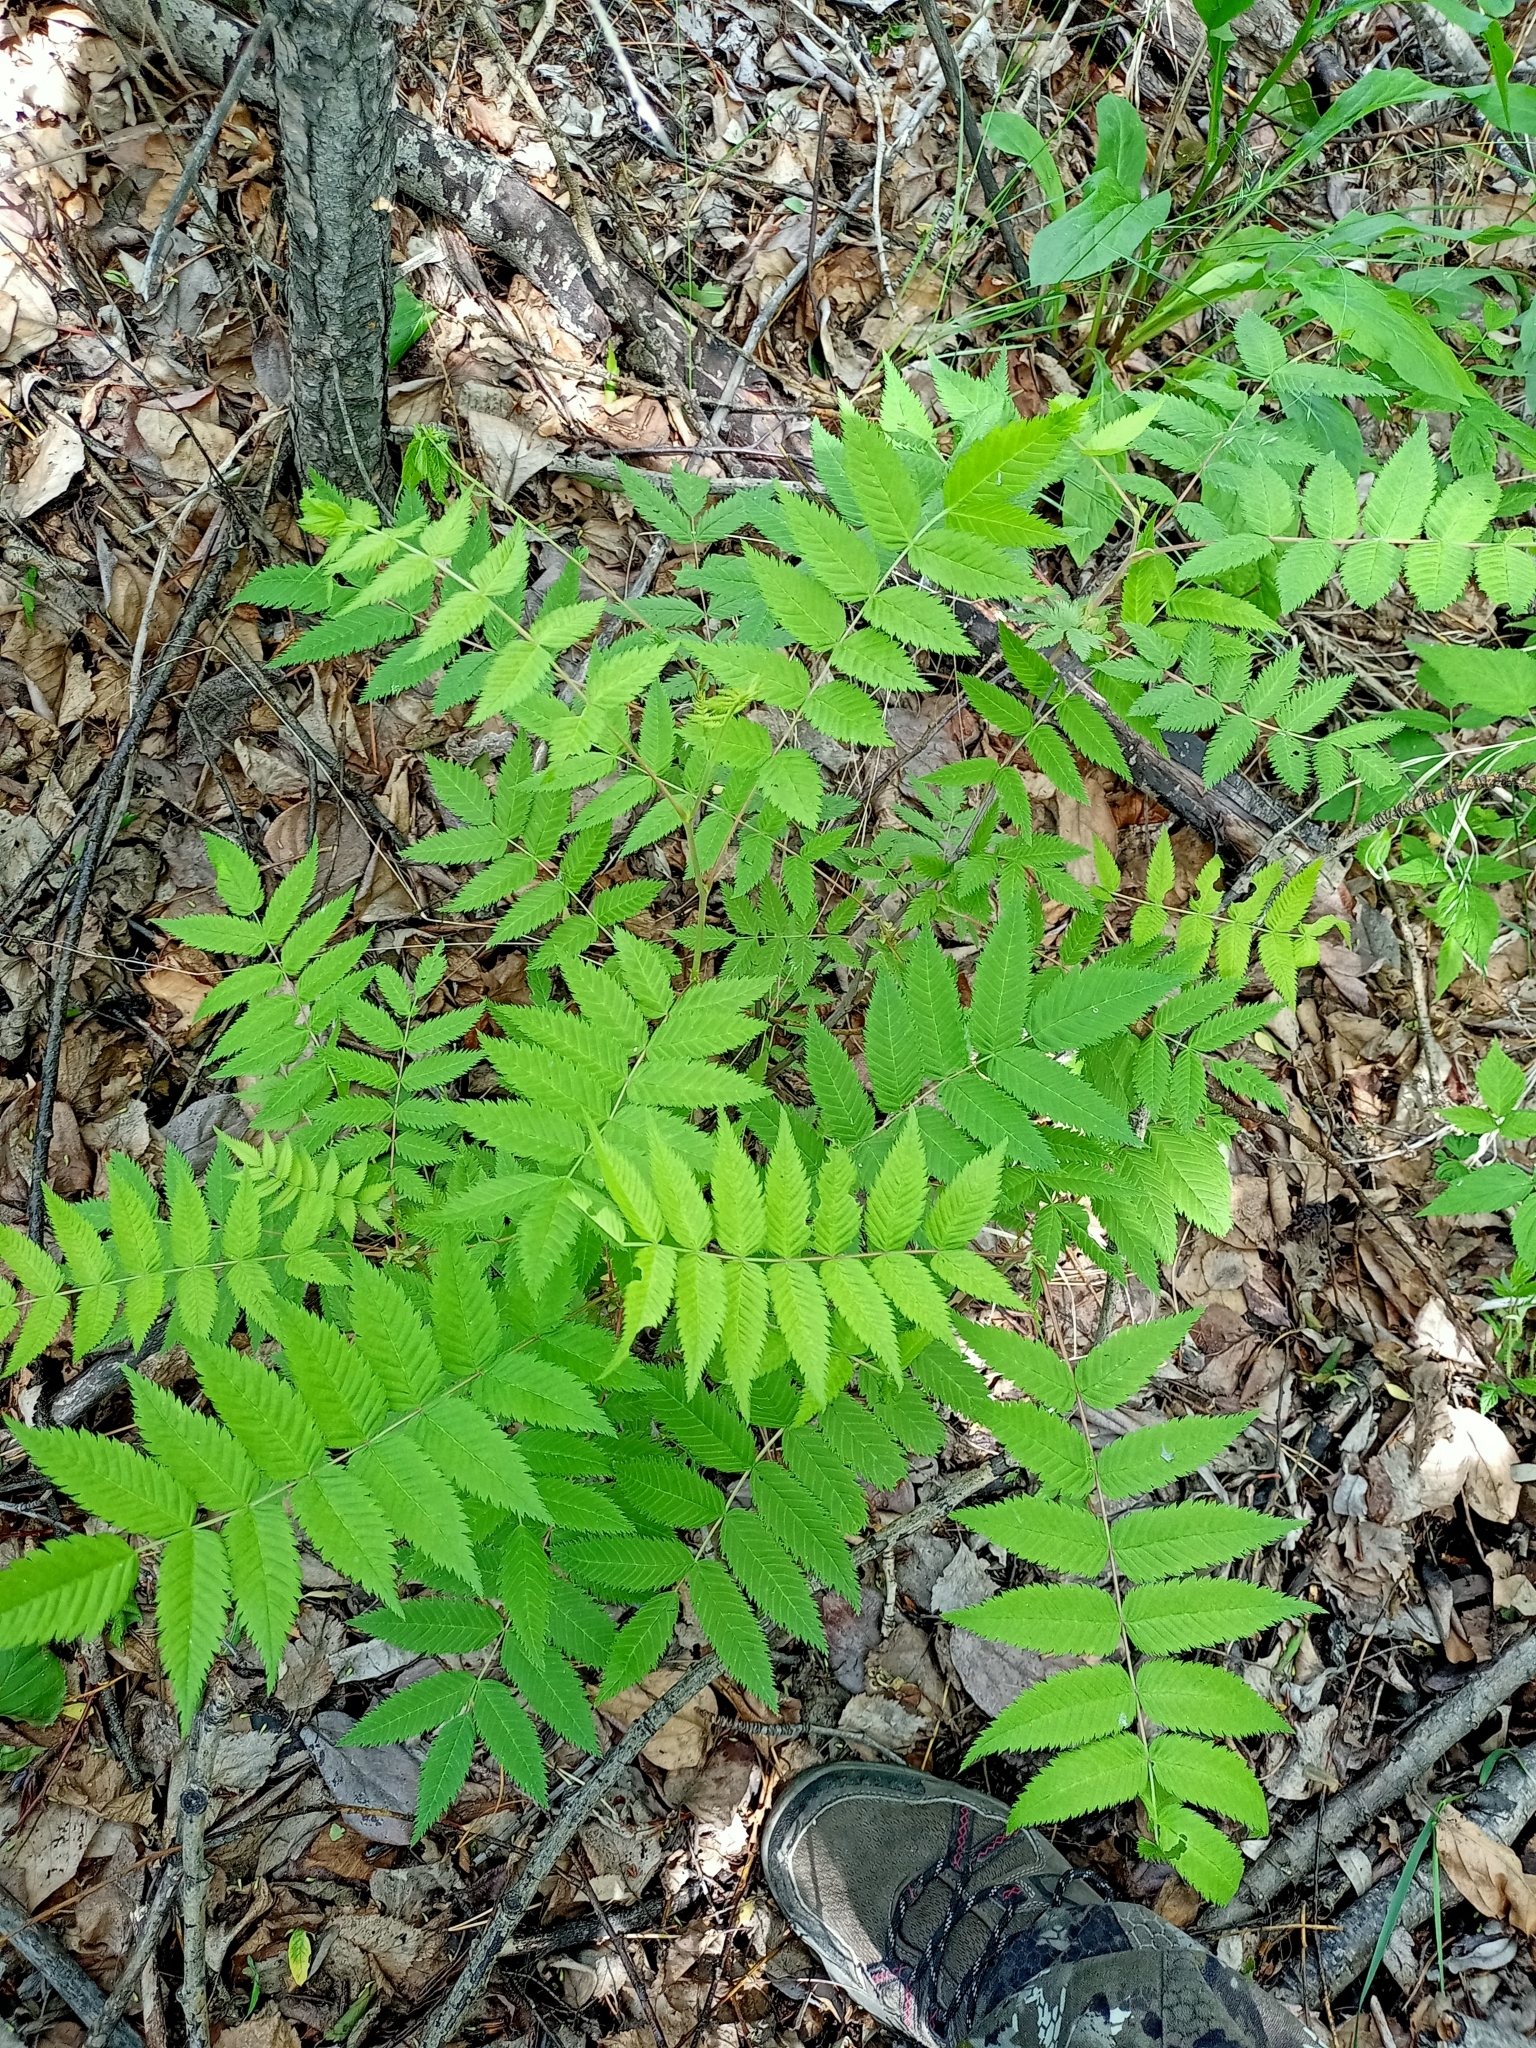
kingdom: Plantae
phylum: Tracheophyta
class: Magnoliopsida
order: Rosales
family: Rosaceae
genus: Sorbaria
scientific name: Sorbaria sorbifolia
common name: False spiraea
